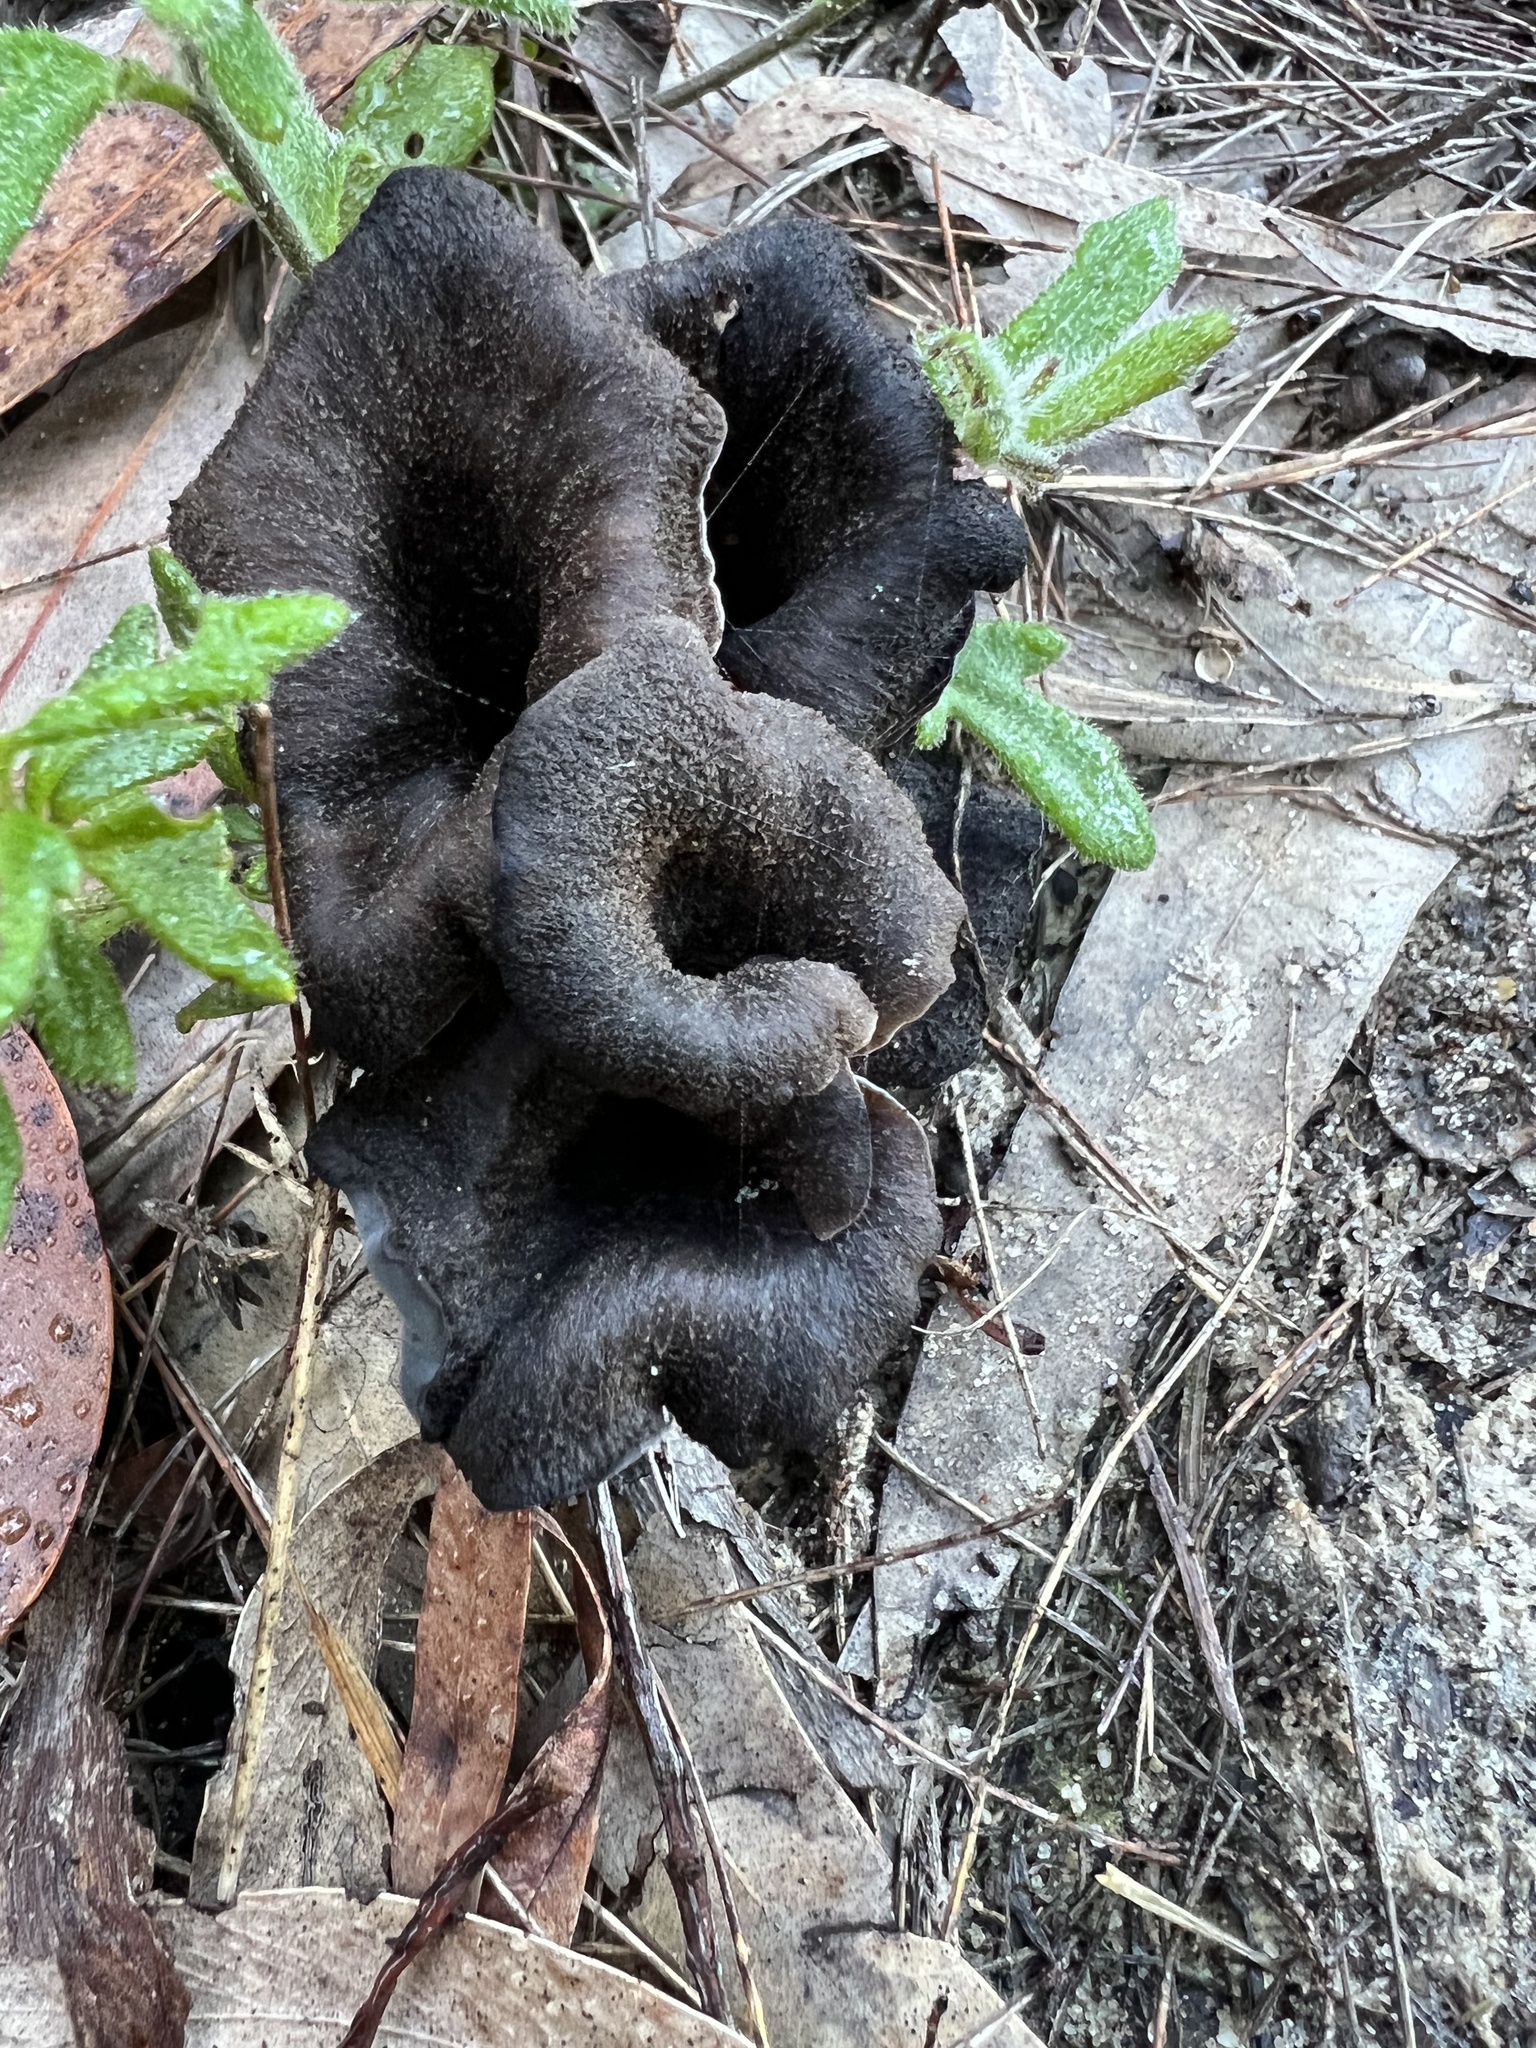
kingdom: Fungi
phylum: Basidiomycota
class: Agaricomycetes
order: Cantharellales
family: Hydnaceae
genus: Craterellus
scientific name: Craterellus cornucopioides
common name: Horn of plenty
